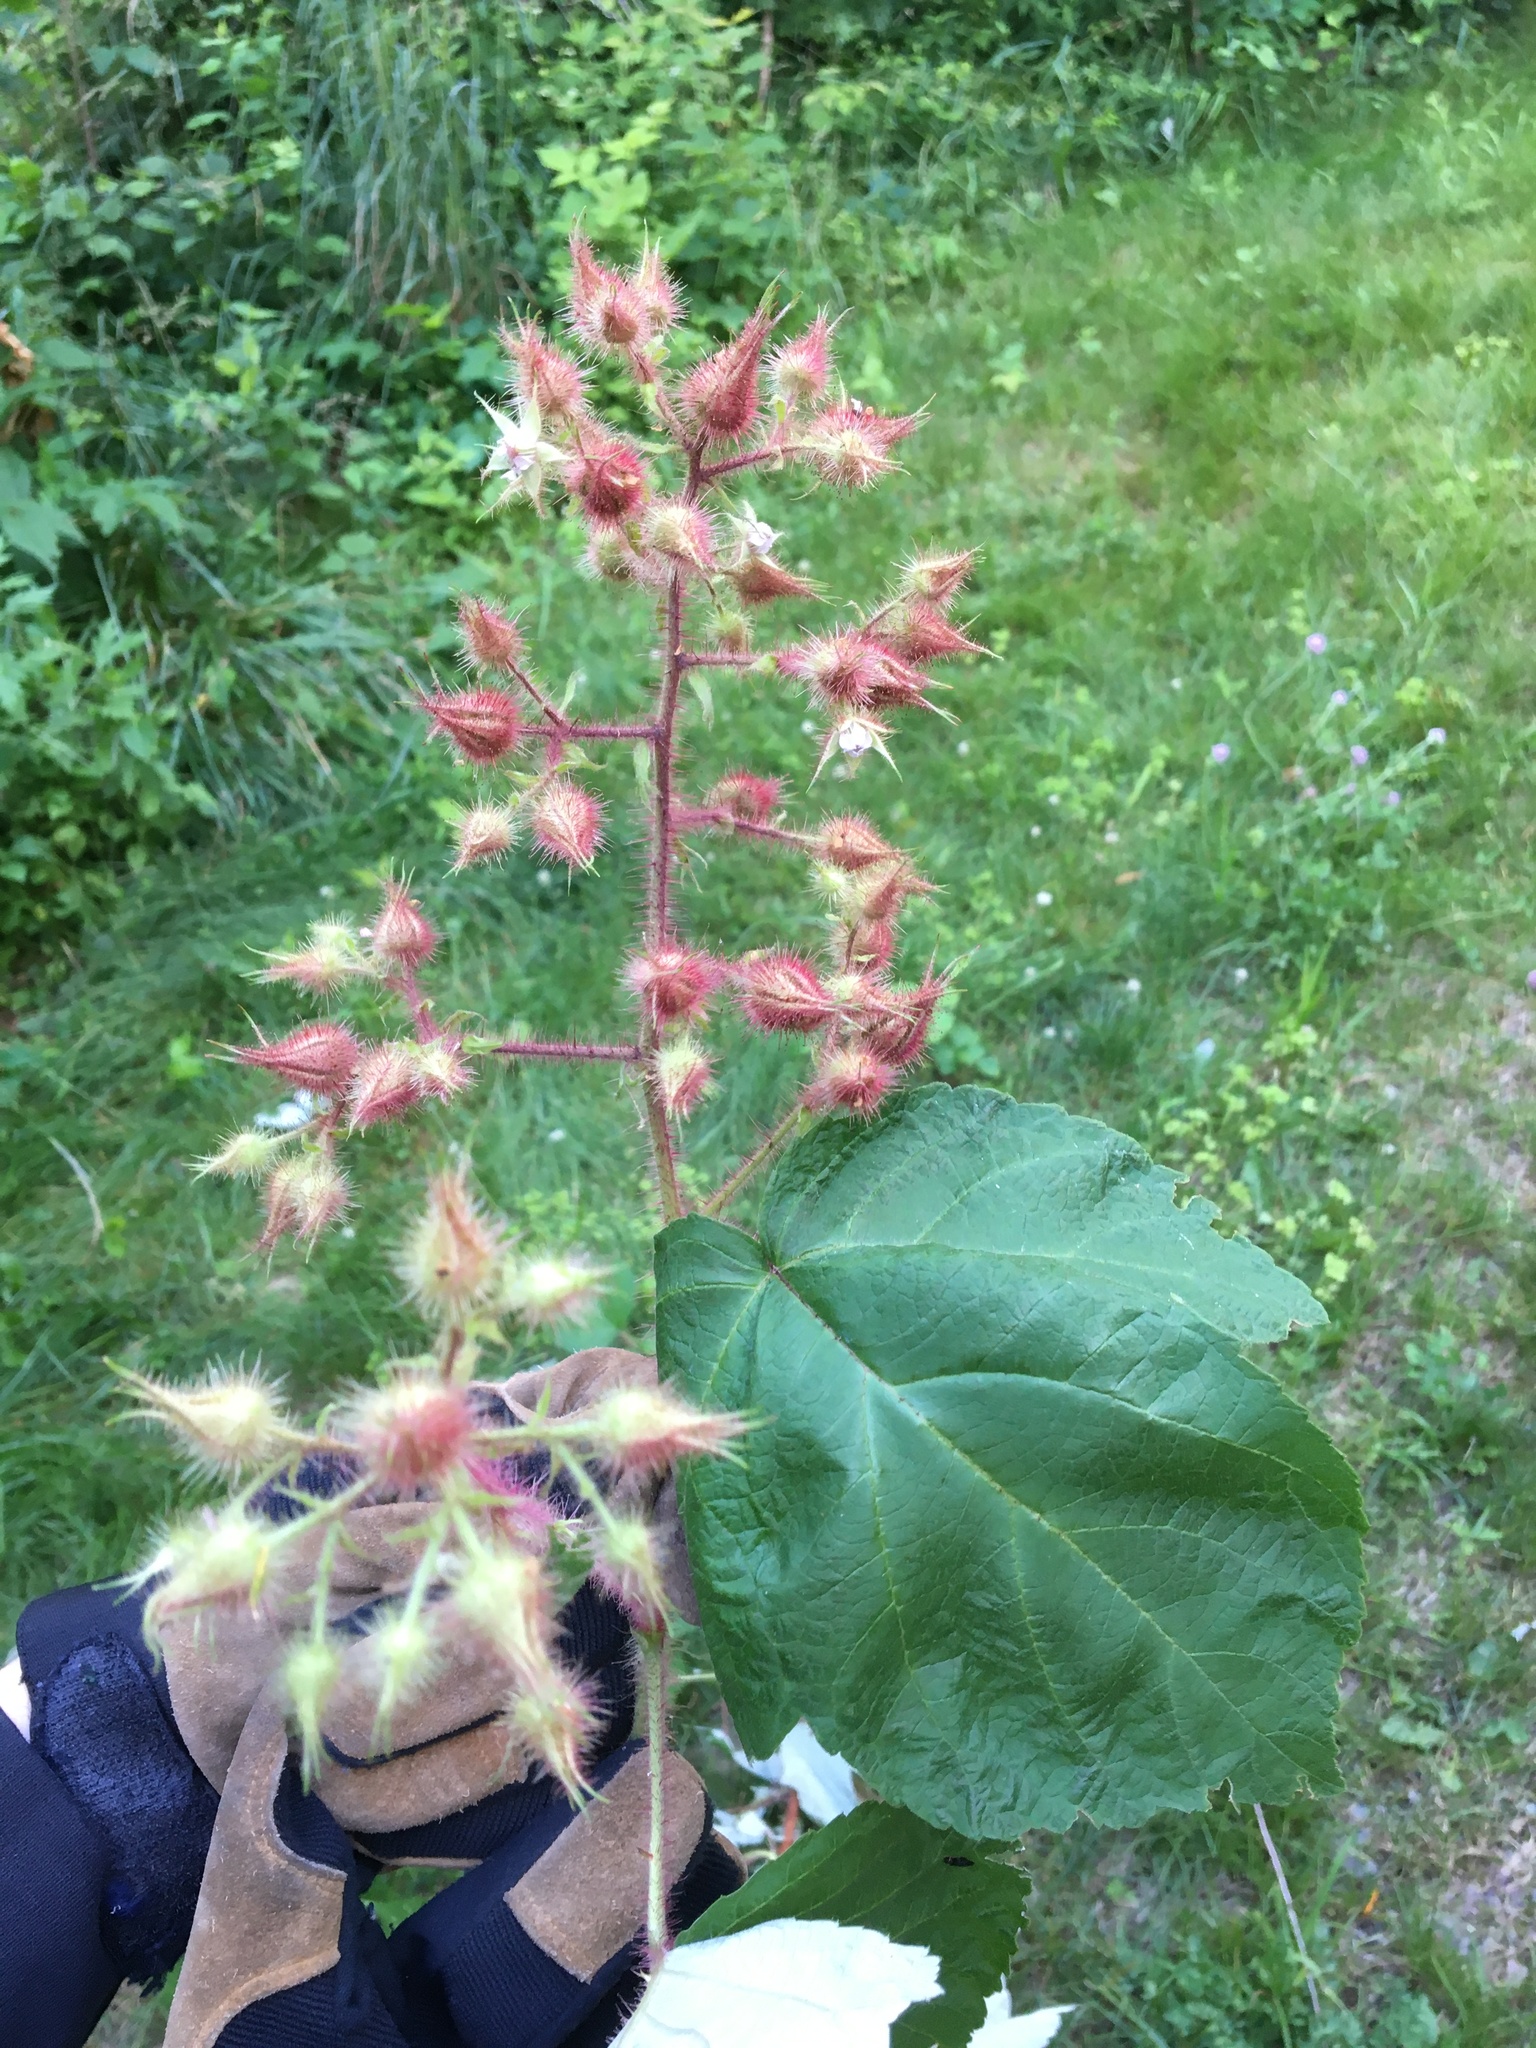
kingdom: Plantae
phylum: Tracheophyta
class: Magnoliopsida
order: Rosales
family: Rosaceae
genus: Rubus
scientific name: Rubus phoenicolasius
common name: Japanese wineberry
